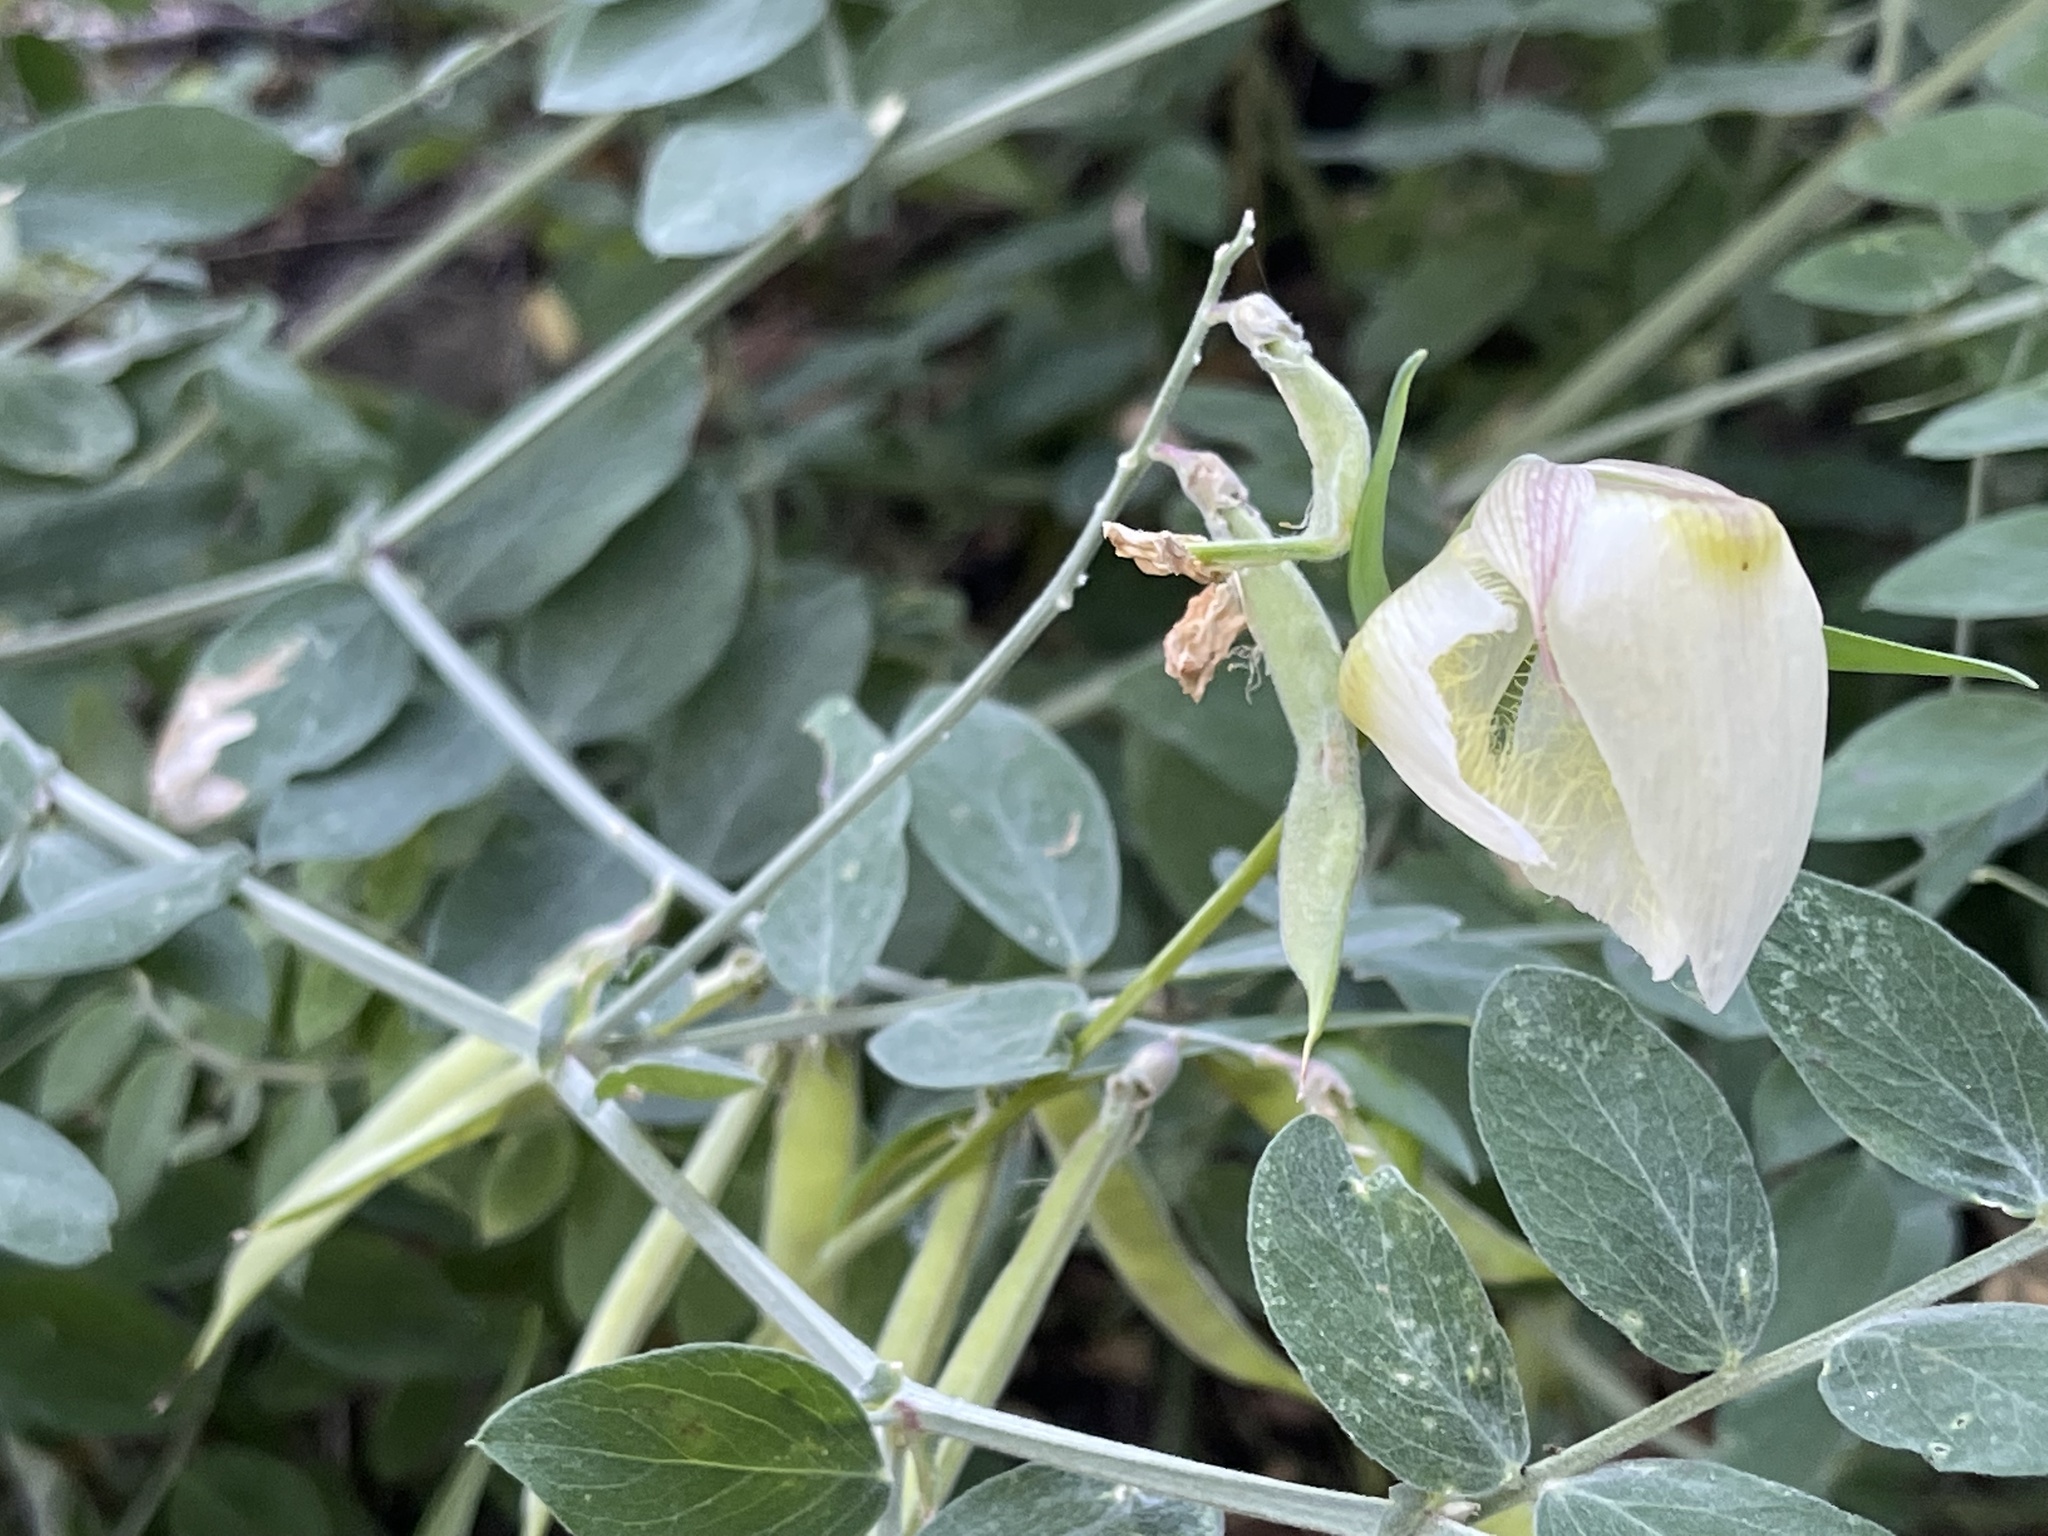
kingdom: Plantae
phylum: Tracheophyta
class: Liliopsida
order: Liliales
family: Liliaceae
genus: Calochortus
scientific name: Calochortus albus
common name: Fairy-lantern
